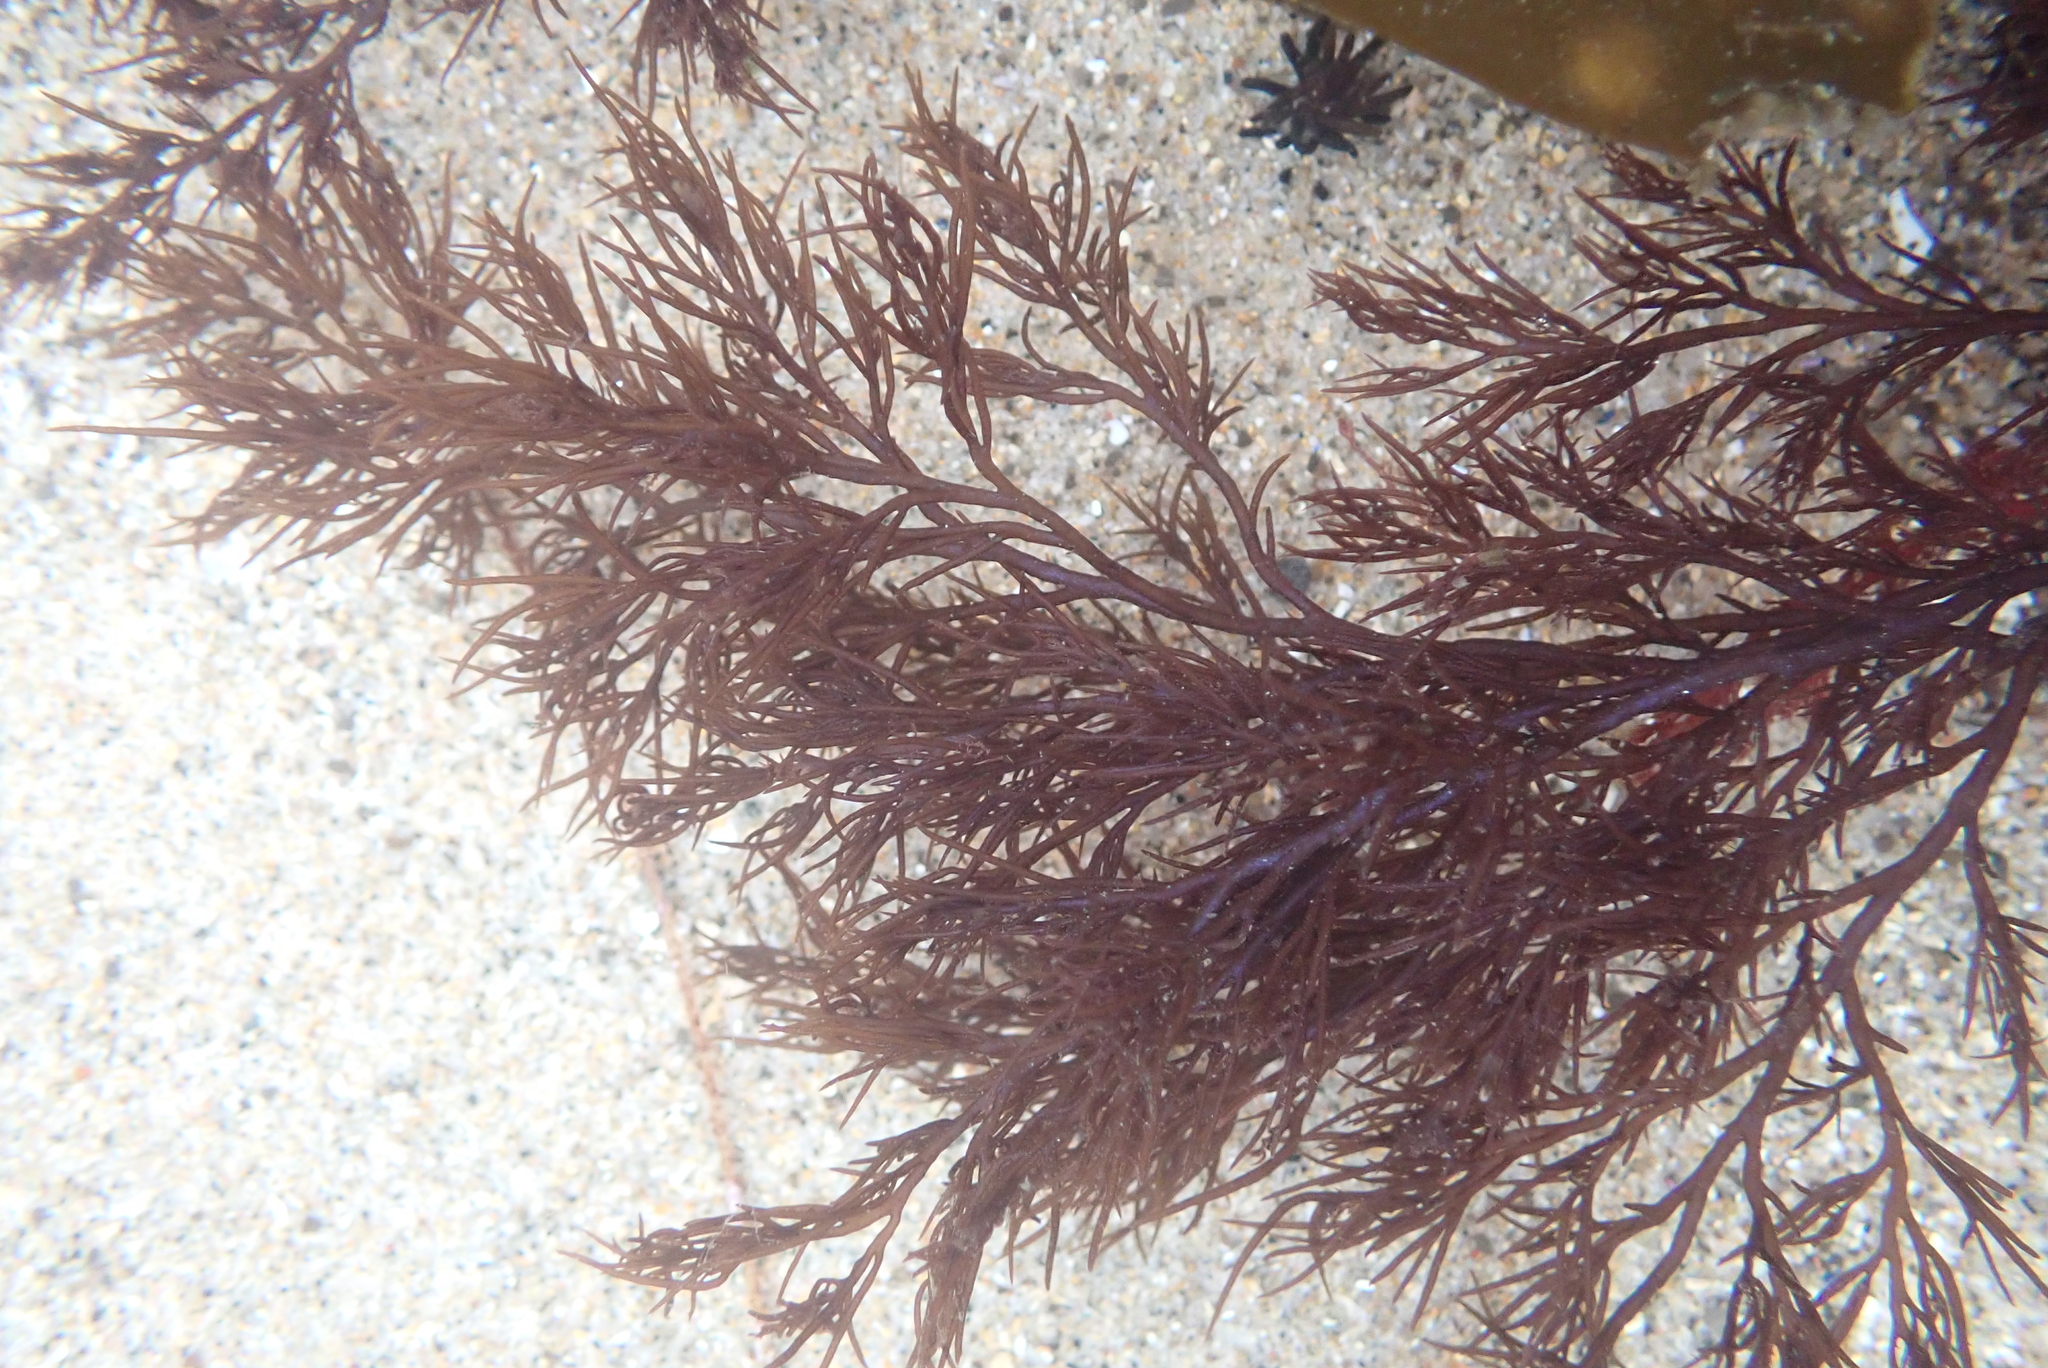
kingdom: Plantae
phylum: Rhodophyta
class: Florideophyceae
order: Ceramiales
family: Rhodomelaceae
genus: Odonthalia
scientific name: Odonthalia floccosa
